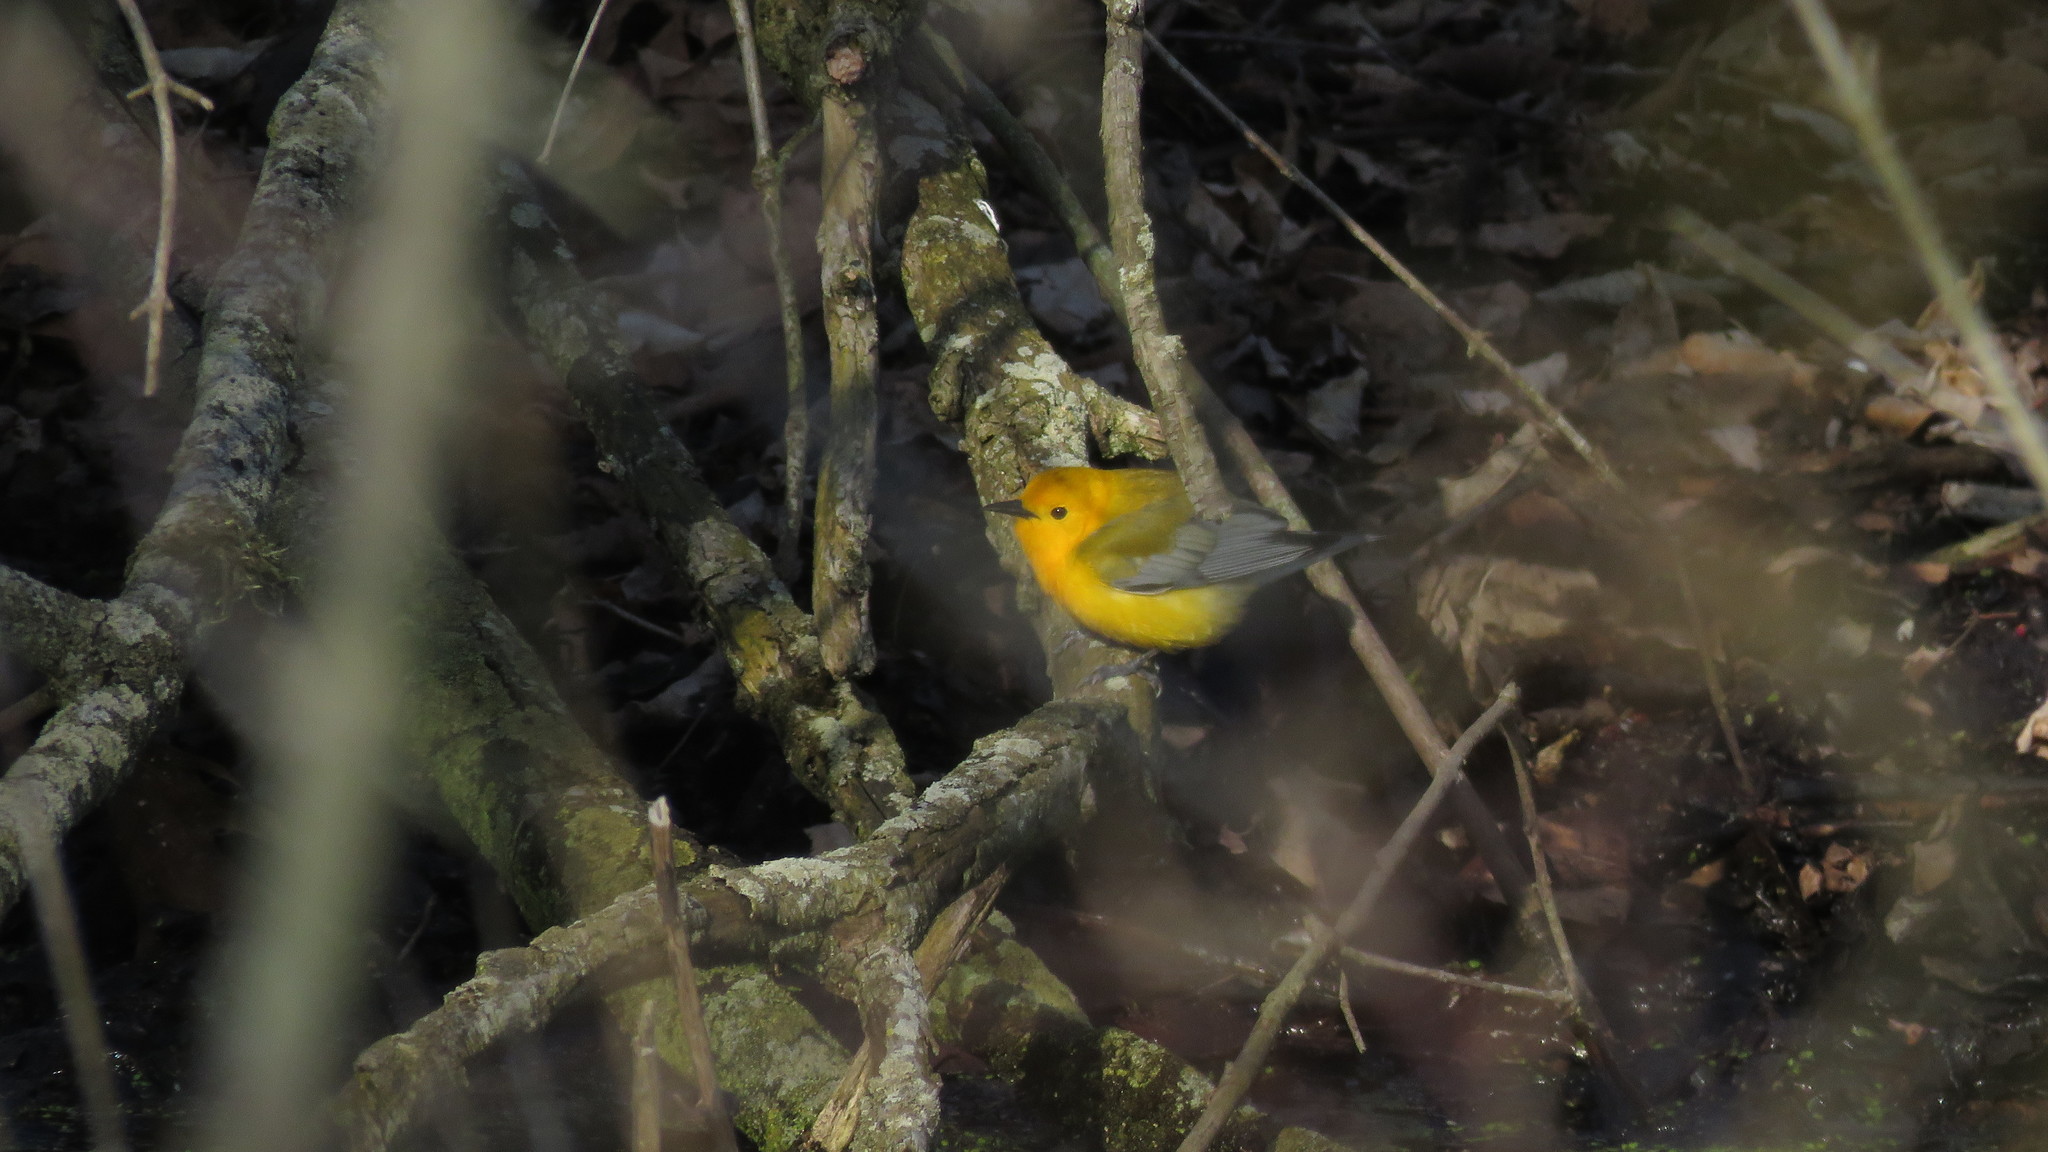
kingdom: Animalia
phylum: Chordata
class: Aves
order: Passeriformes
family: Parulidae
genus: Protonotaria
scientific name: Protonotaria citrea
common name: Prothonotary warbler
